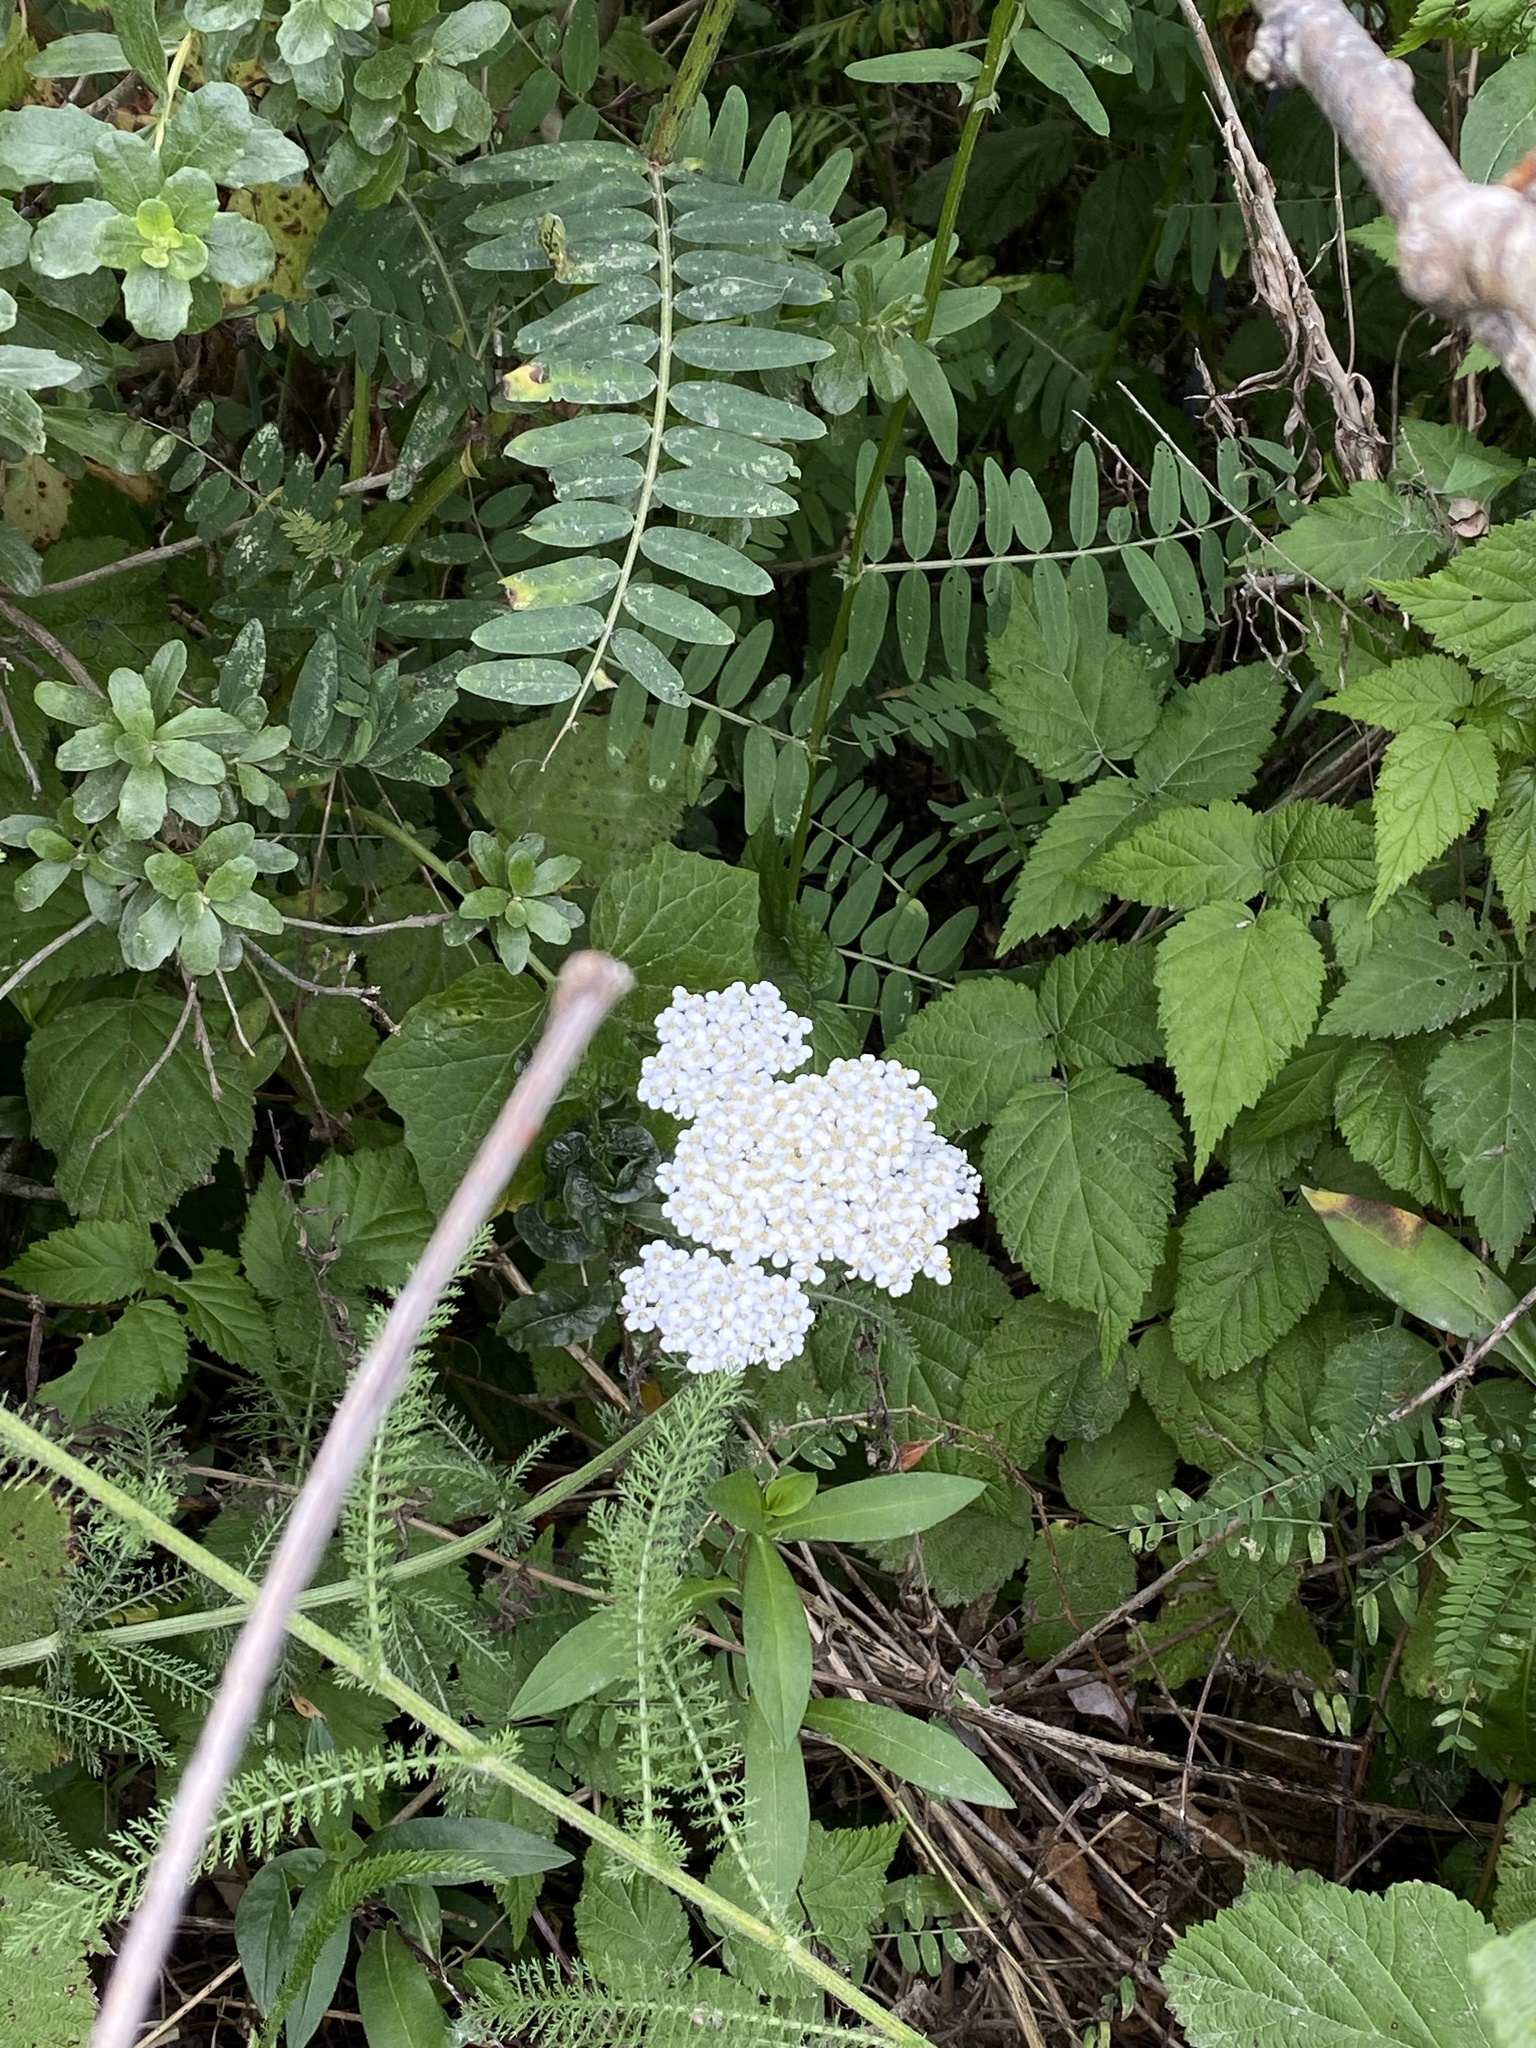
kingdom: Plantae
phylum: Tracheophyta
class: Magnoliopsida
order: Asterales
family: Asteraceae
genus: Achillea
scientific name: Achillea millefolium
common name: Yarrow
